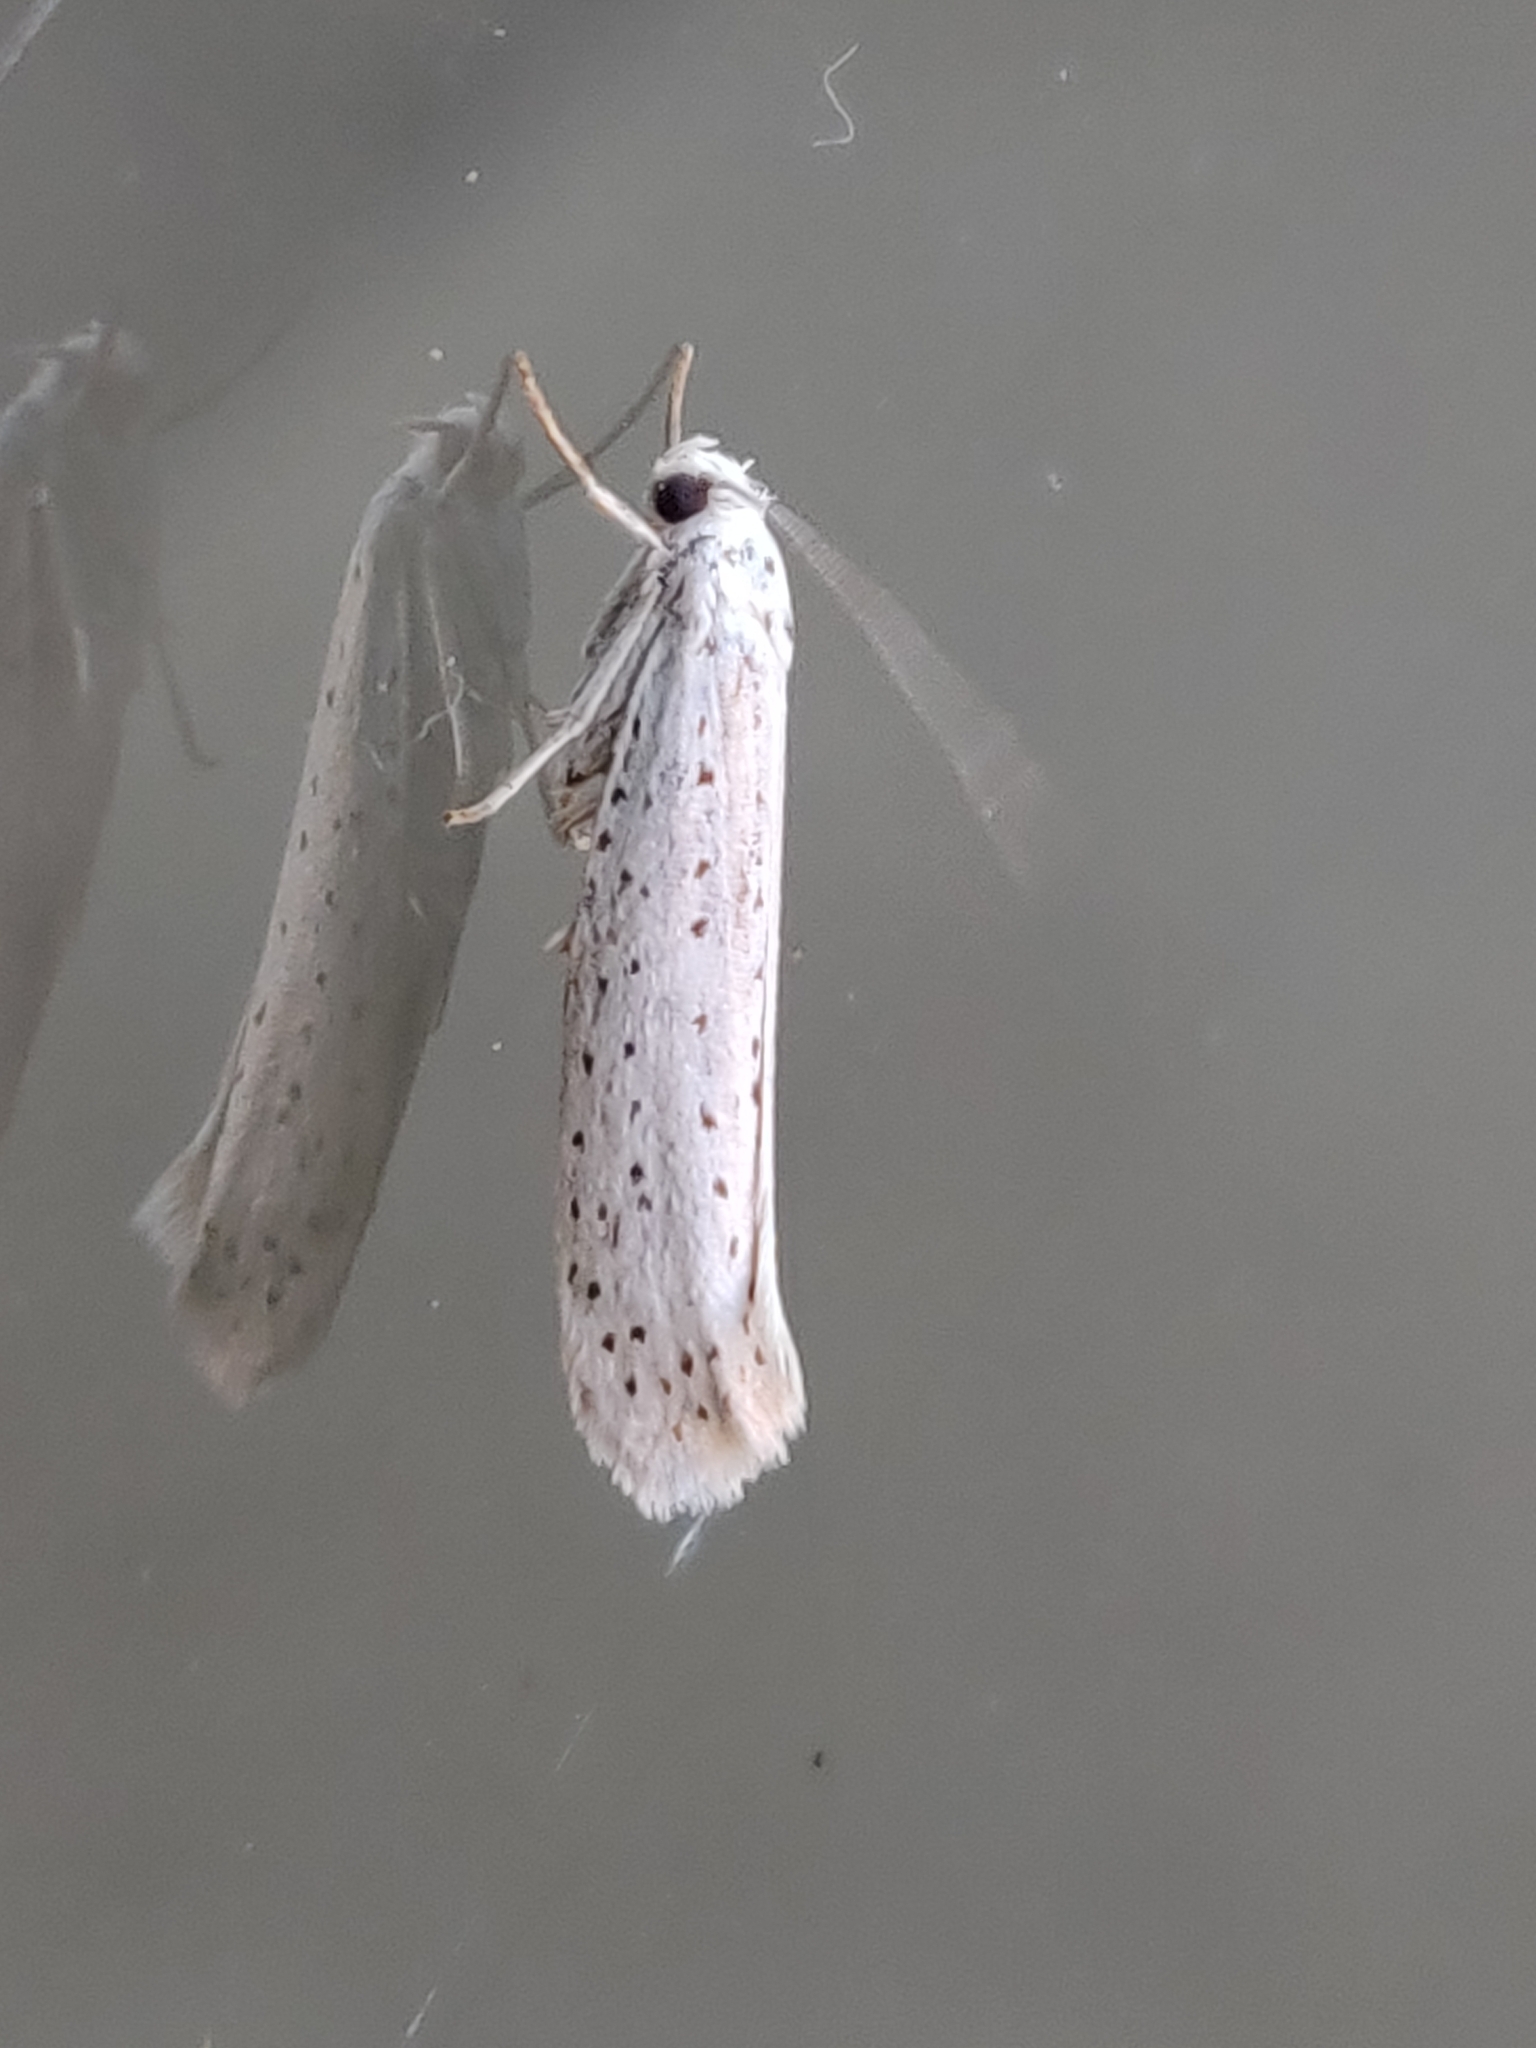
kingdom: Animalia
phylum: Arthropoda
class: Insecta
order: Lepidoptera
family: Yponomeutidae
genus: Yponomeuta
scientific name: Yponomeuta evonymella
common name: Bird-cherry ermine
